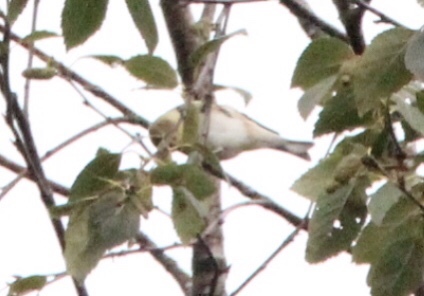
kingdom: Animalia
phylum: Chordata
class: Aves
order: Passeriformes
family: Fringillidae
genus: Spinus
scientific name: Spinus tristis
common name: American goldfinch
